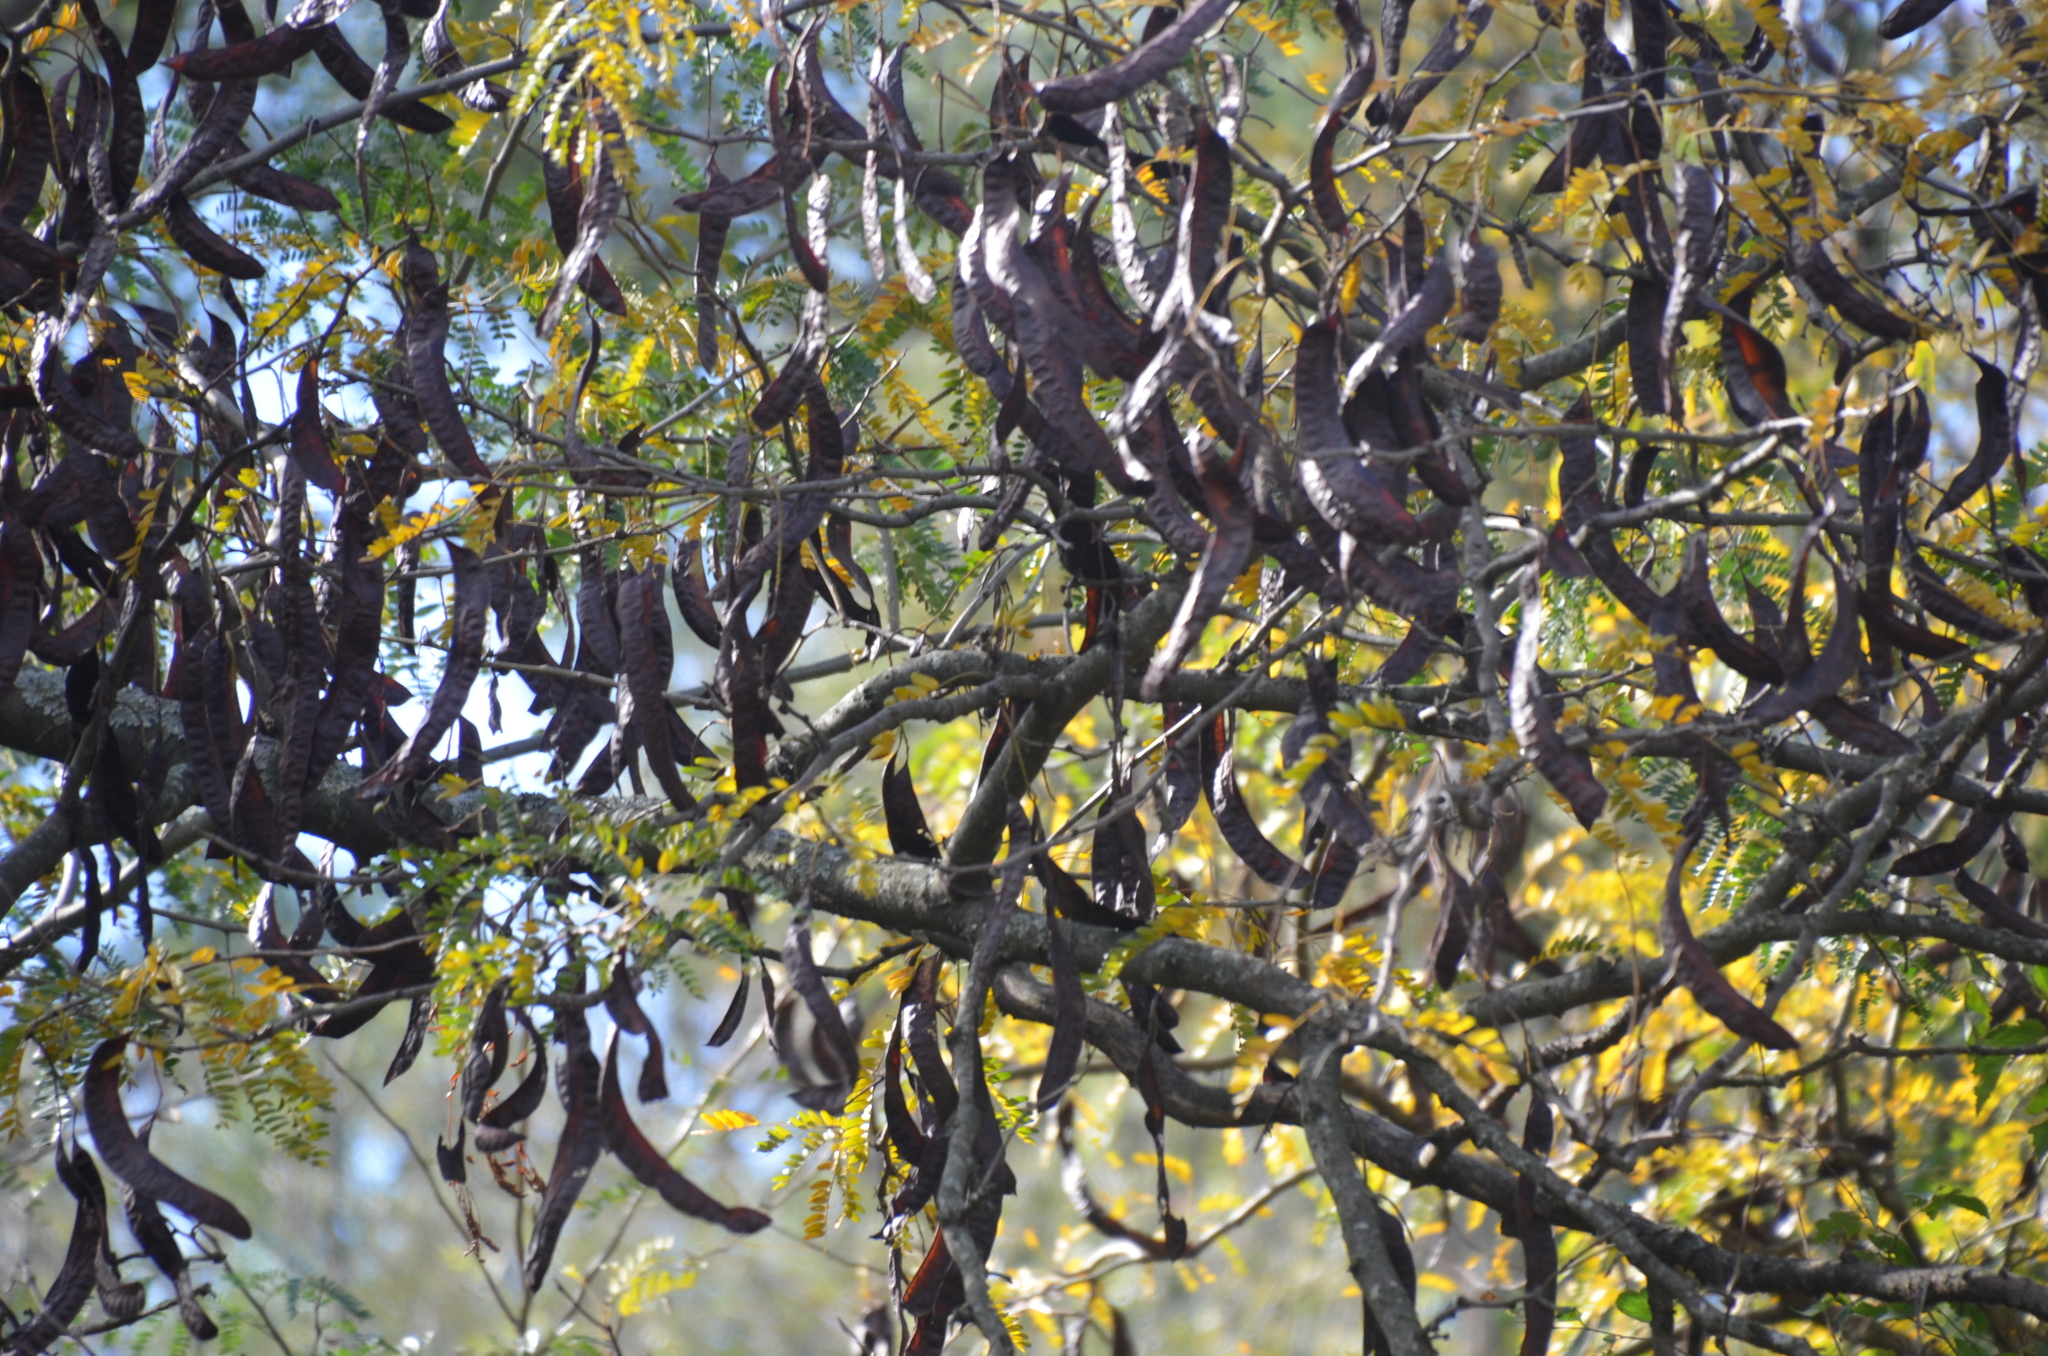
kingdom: Plantae
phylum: Tracheophyta
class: Magnoliopsida
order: Fabales
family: Fabaceae
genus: Gleditsia
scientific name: Gleditsia triacanthos
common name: Common honeylocust
